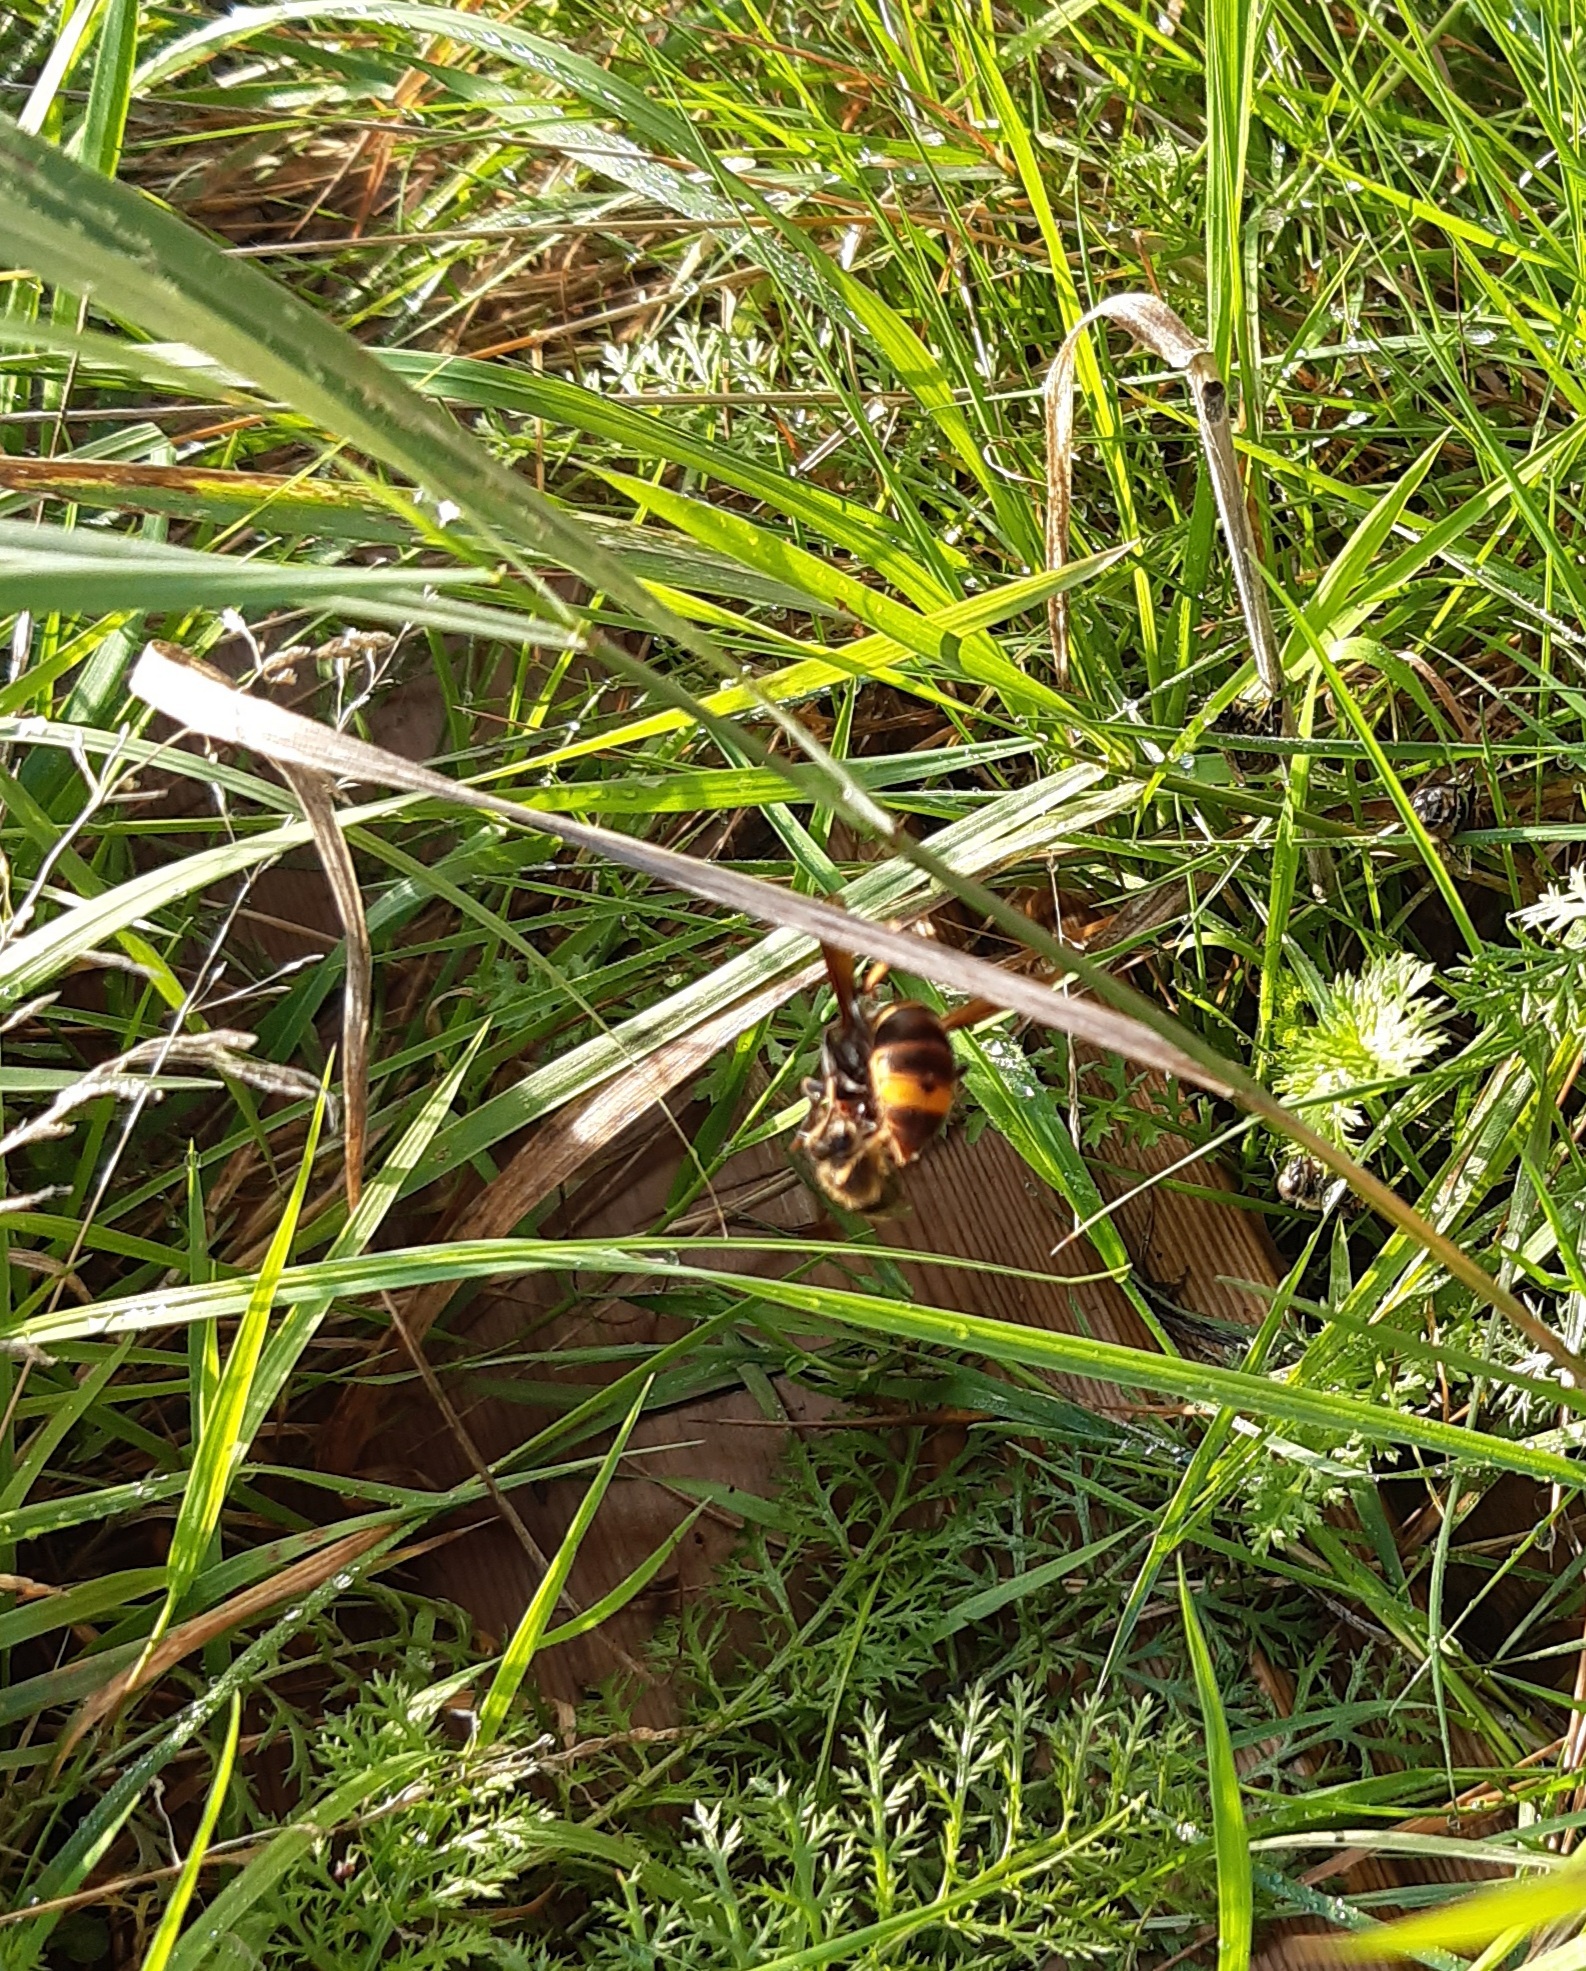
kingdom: Animalia
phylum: Arthropoda
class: Insecta
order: Hymenoptera
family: Vespidae
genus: Vespa
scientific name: Vespa velutina
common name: Asian hornet
